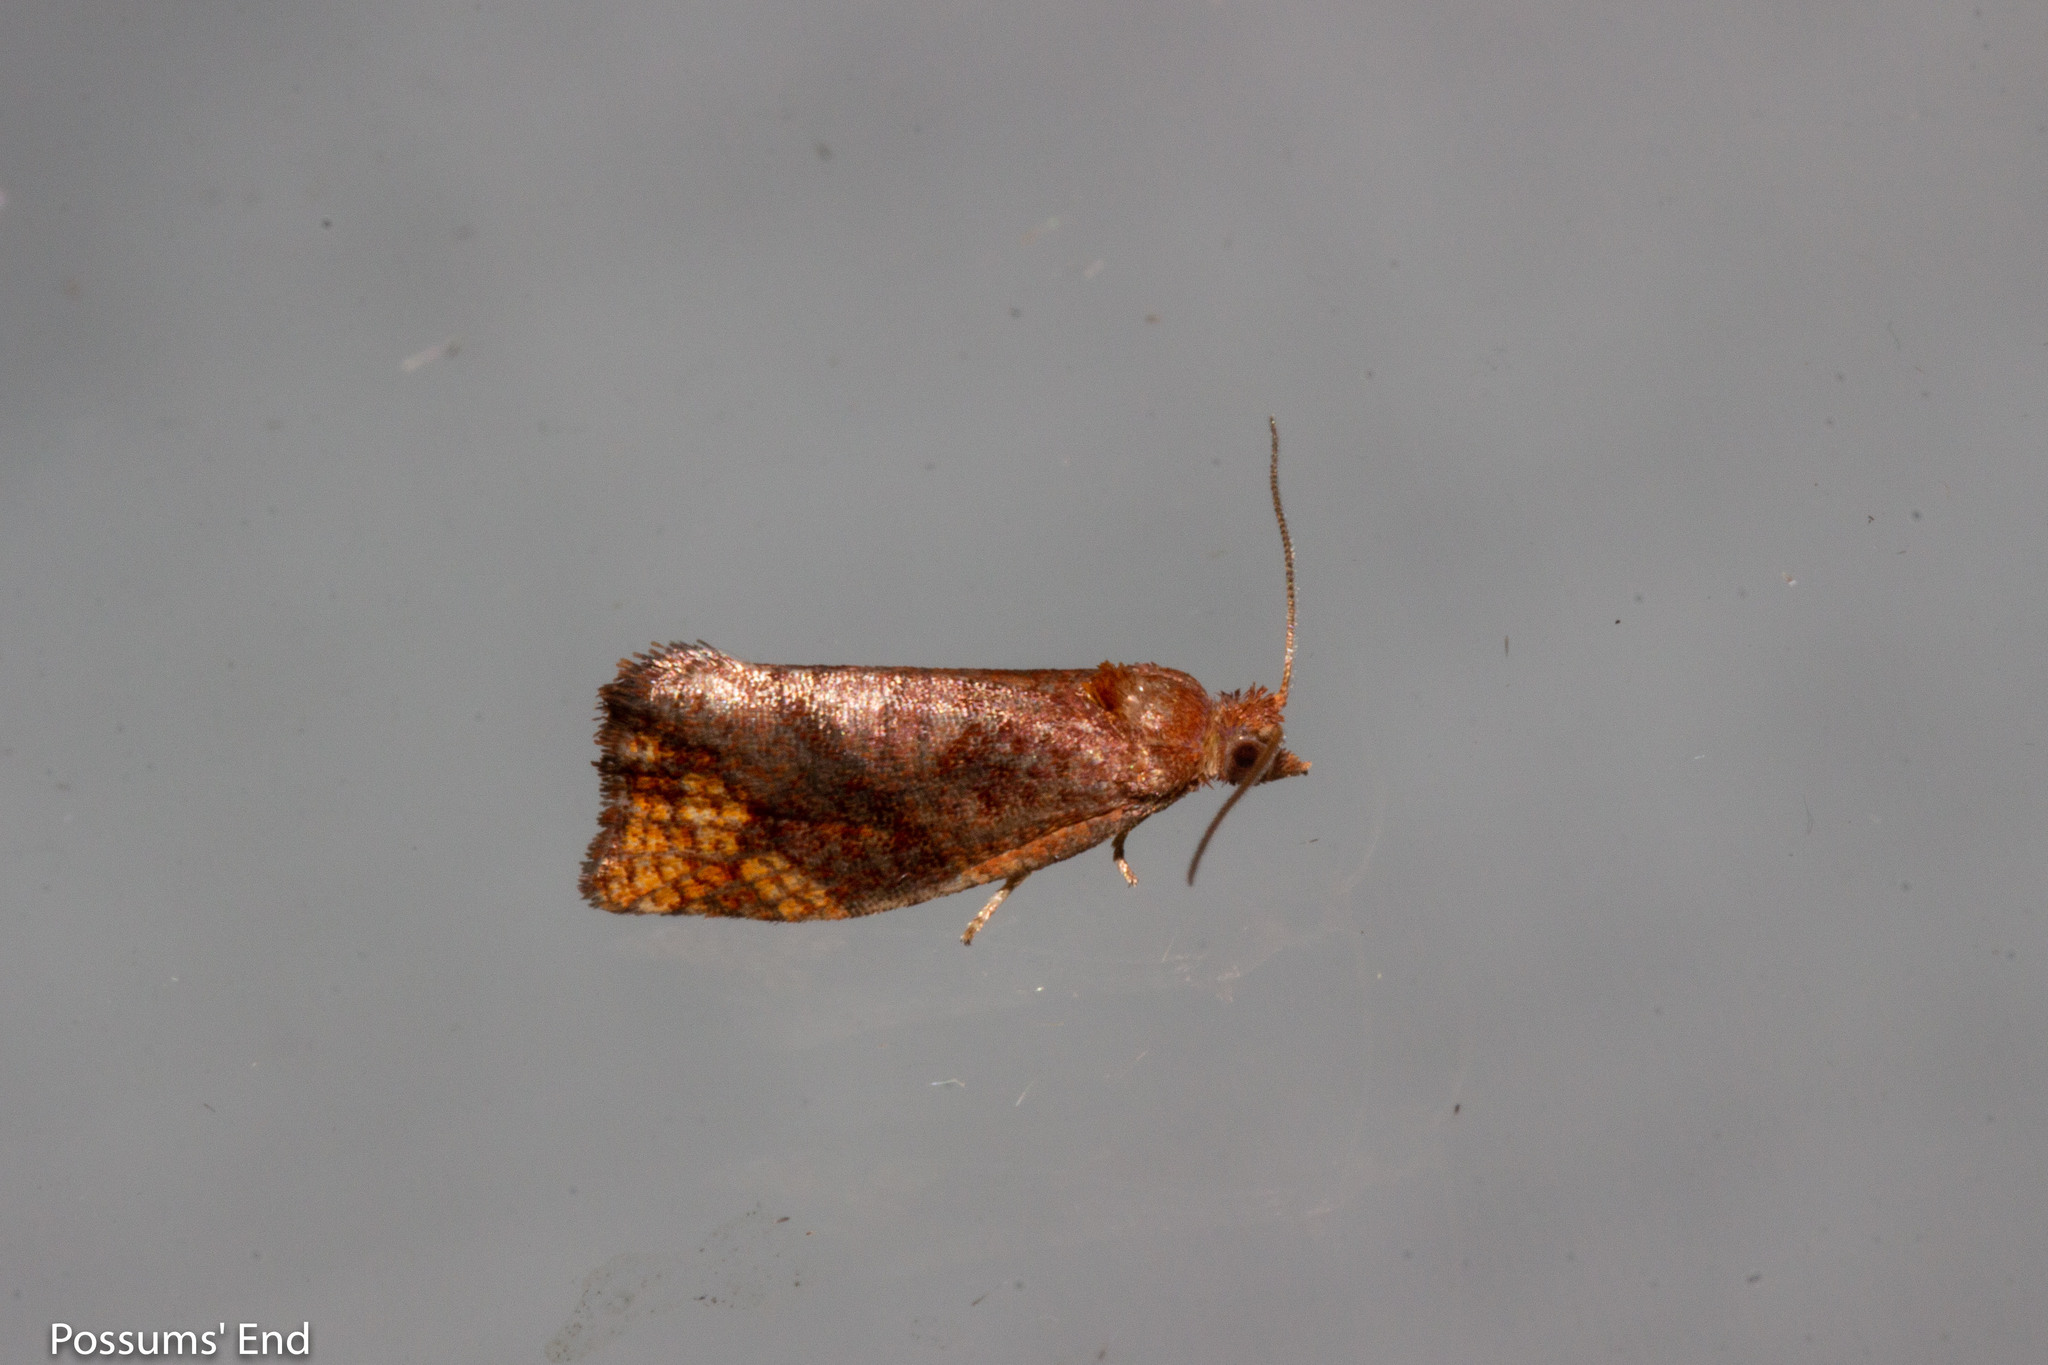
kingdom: Animalia
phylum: Arthropoda
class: Insecta
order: Lepidoptera
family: Tortricidae
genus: Pyrgotis
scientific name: Pyrgotis eudorana
